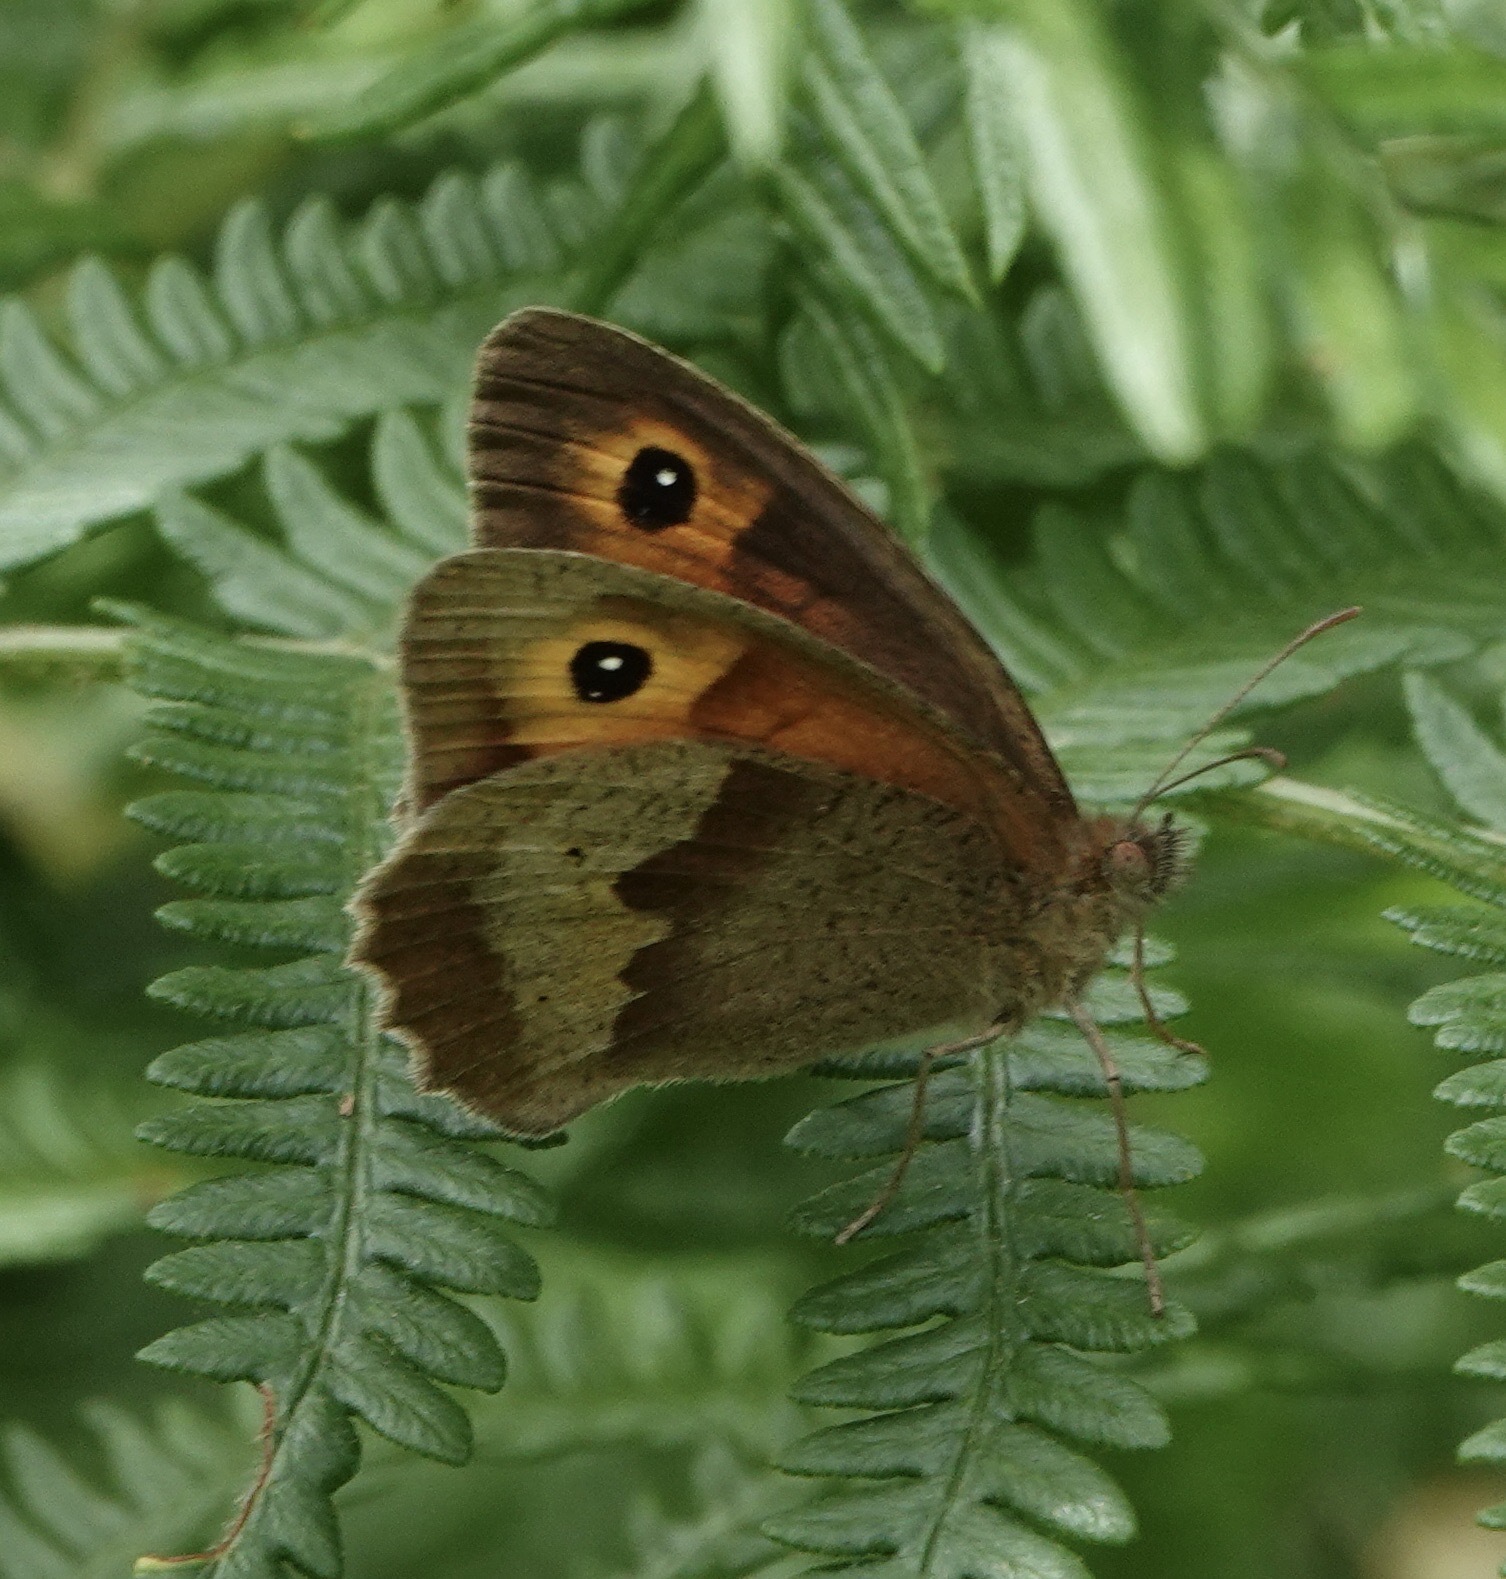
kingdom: Animalia
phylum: Arthropoda
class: Insecta
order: Lepidoptera
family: Nymphalidae
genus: Maniola
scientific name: Maniola jurtina
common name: Meadow brown
